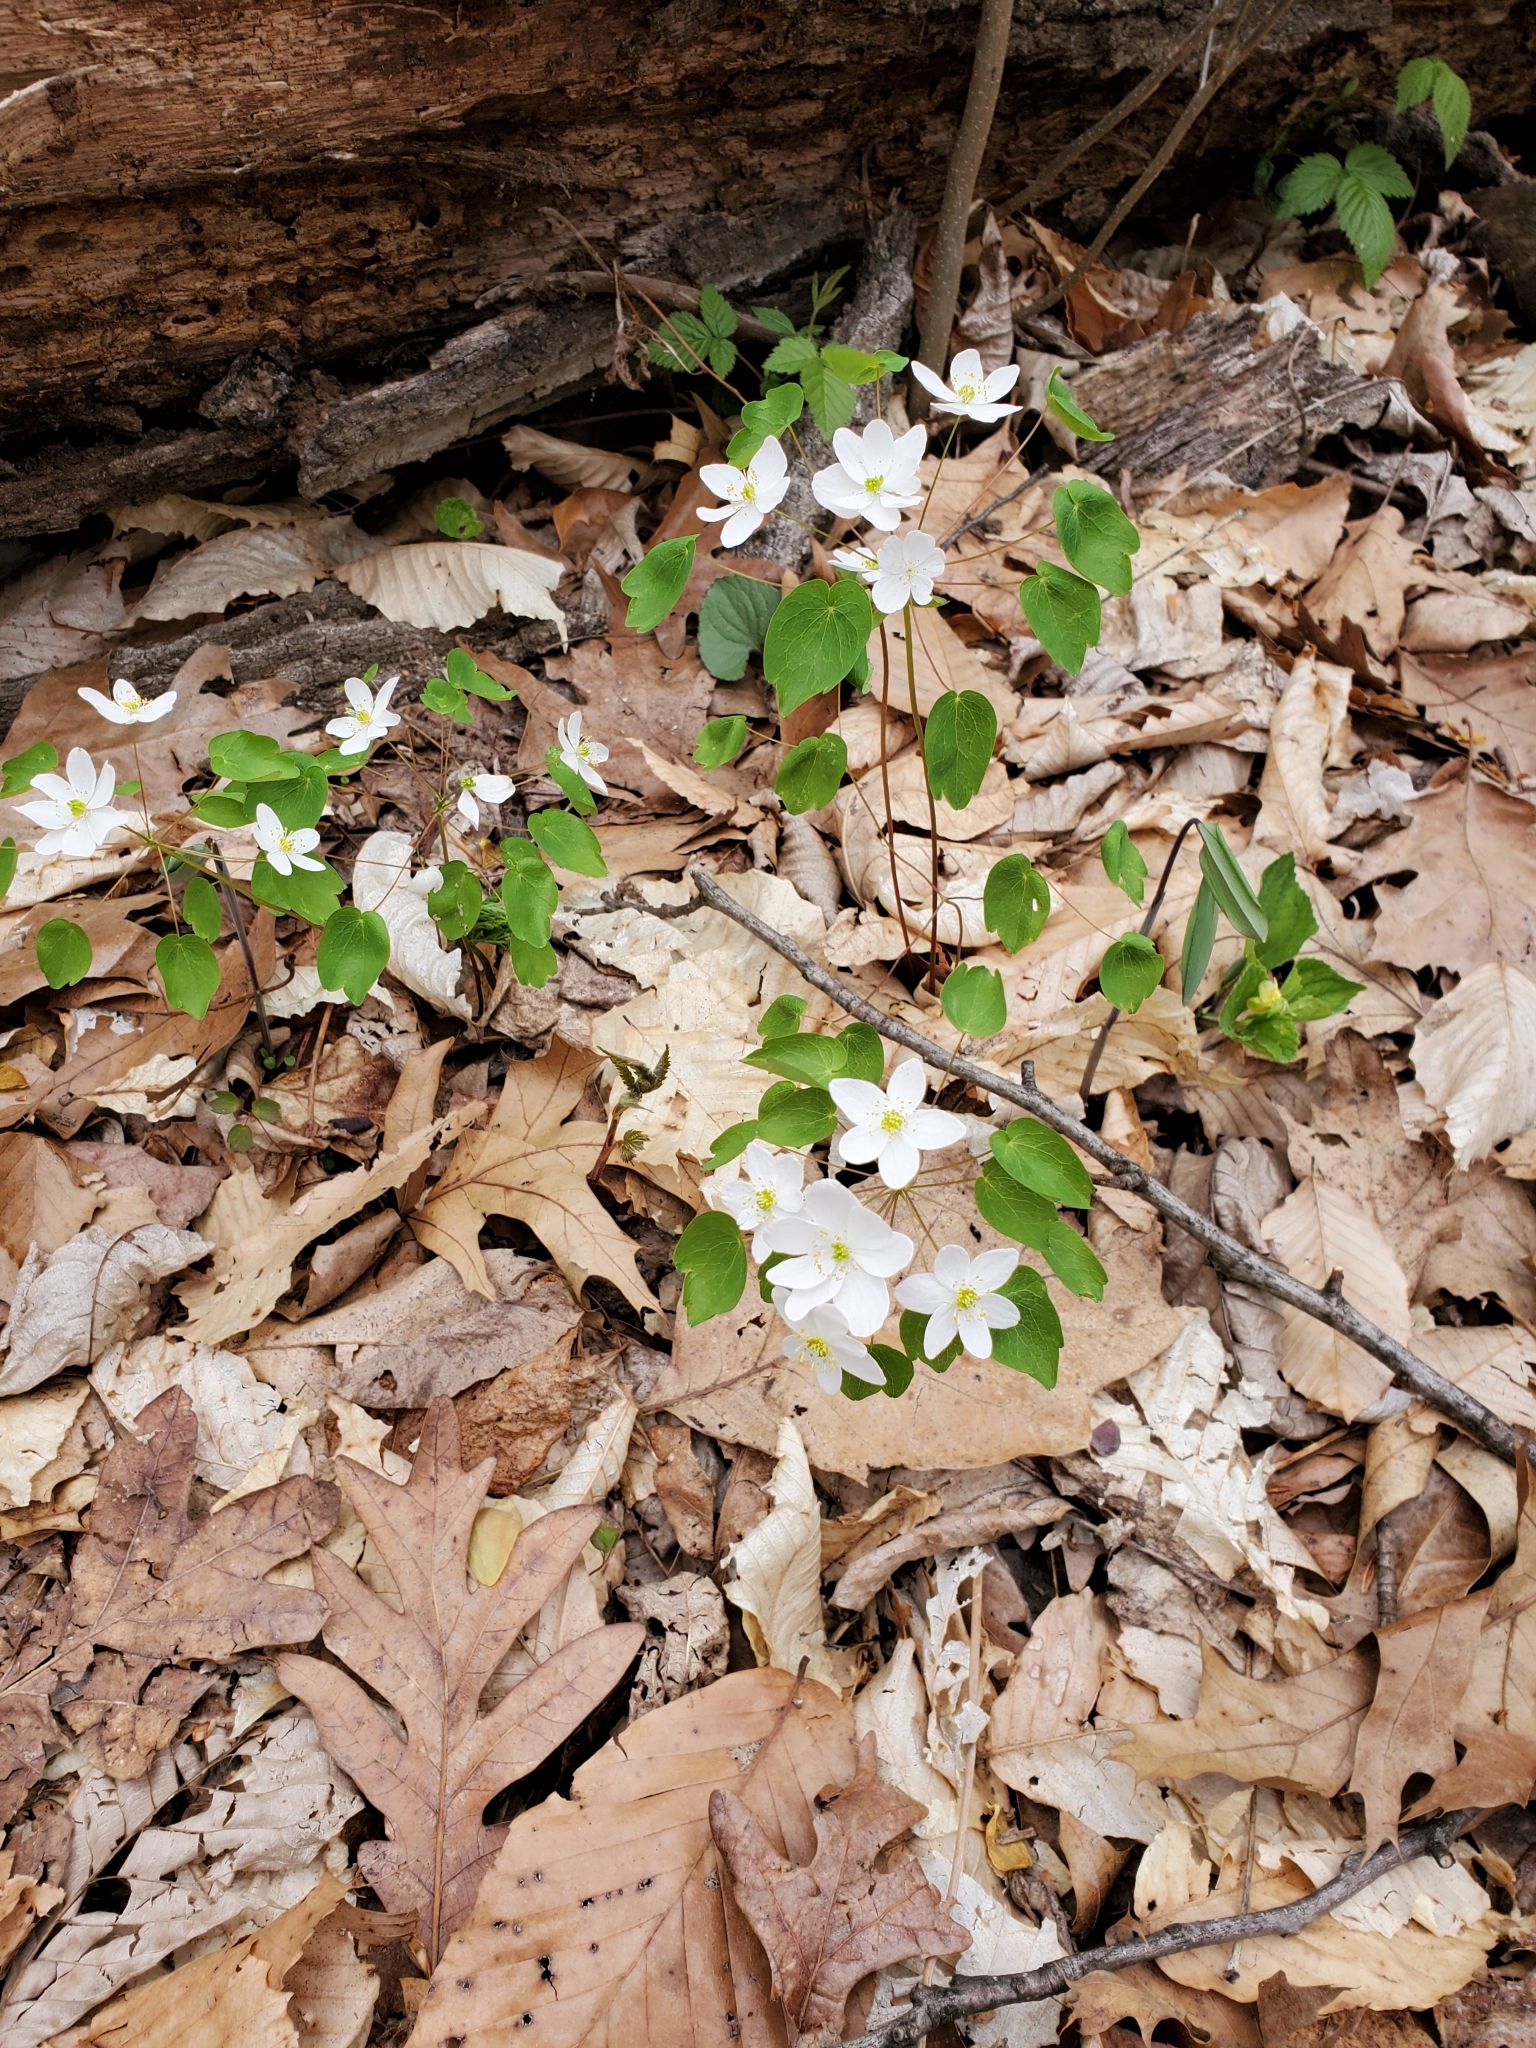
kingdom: Plantae
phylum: Tracheophyta
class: Magnoliopsida
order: Ranunculales
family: Ranunculaceae
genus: Thalictrum
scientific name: Thalictrum thalictroides
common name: Rue-anemone
